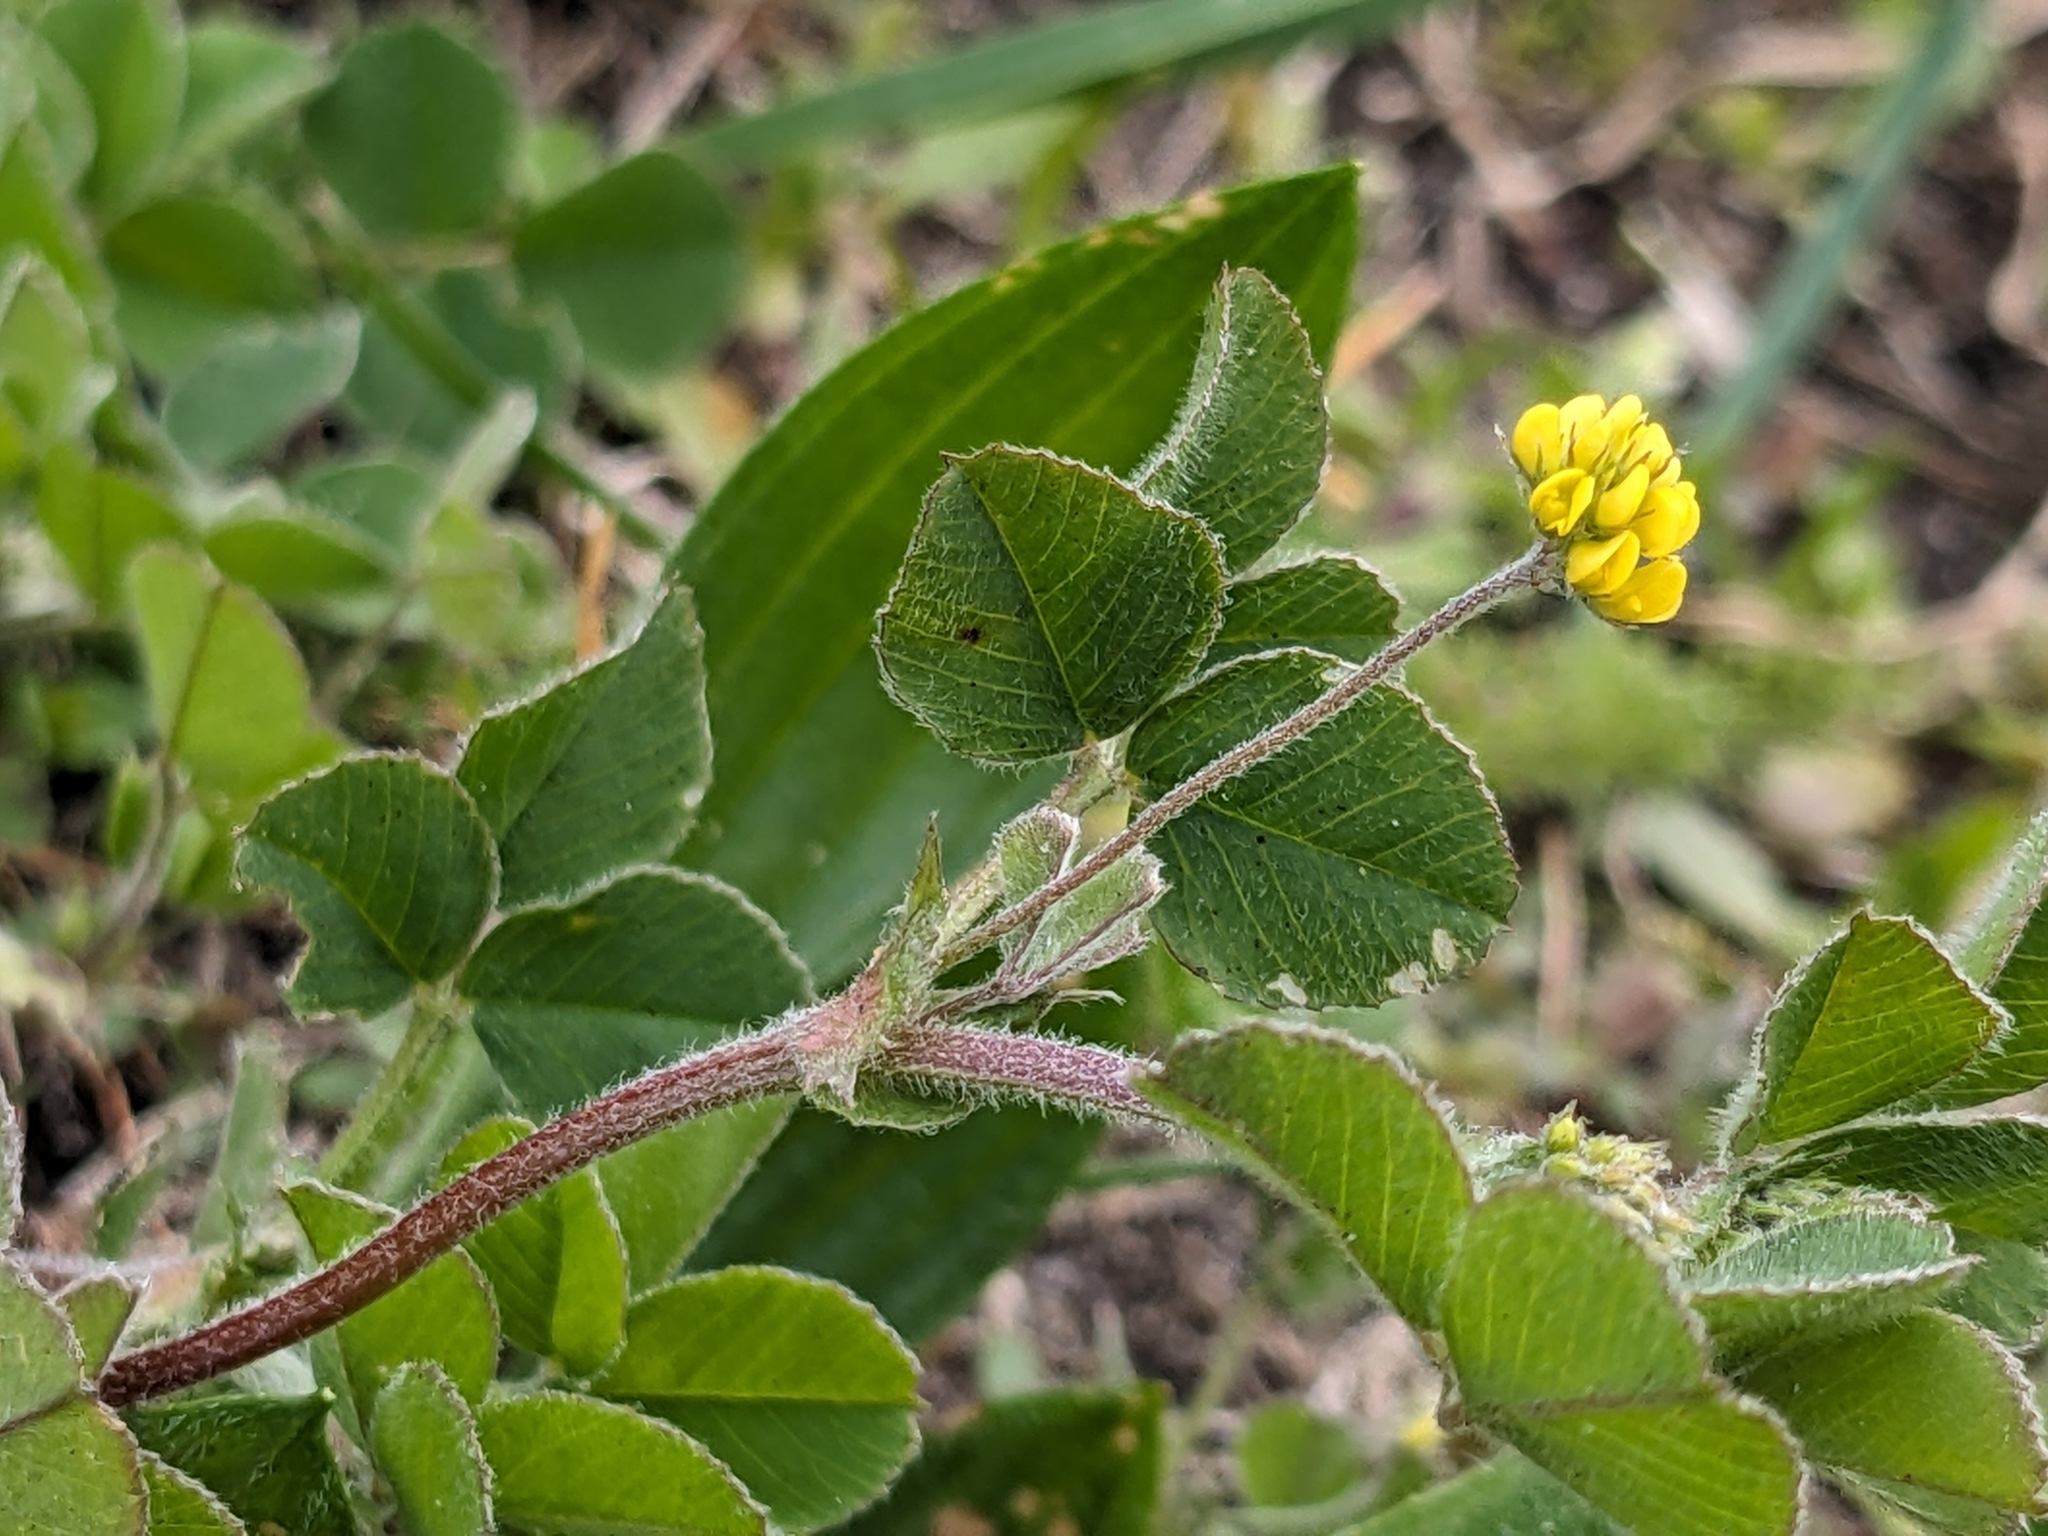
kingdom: Plantae
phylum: Tracheophyta
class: Magnoliopsida
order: Fabales
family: Fabaceae
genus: Medicago
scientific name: Medicago lupulina
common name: Black medick
